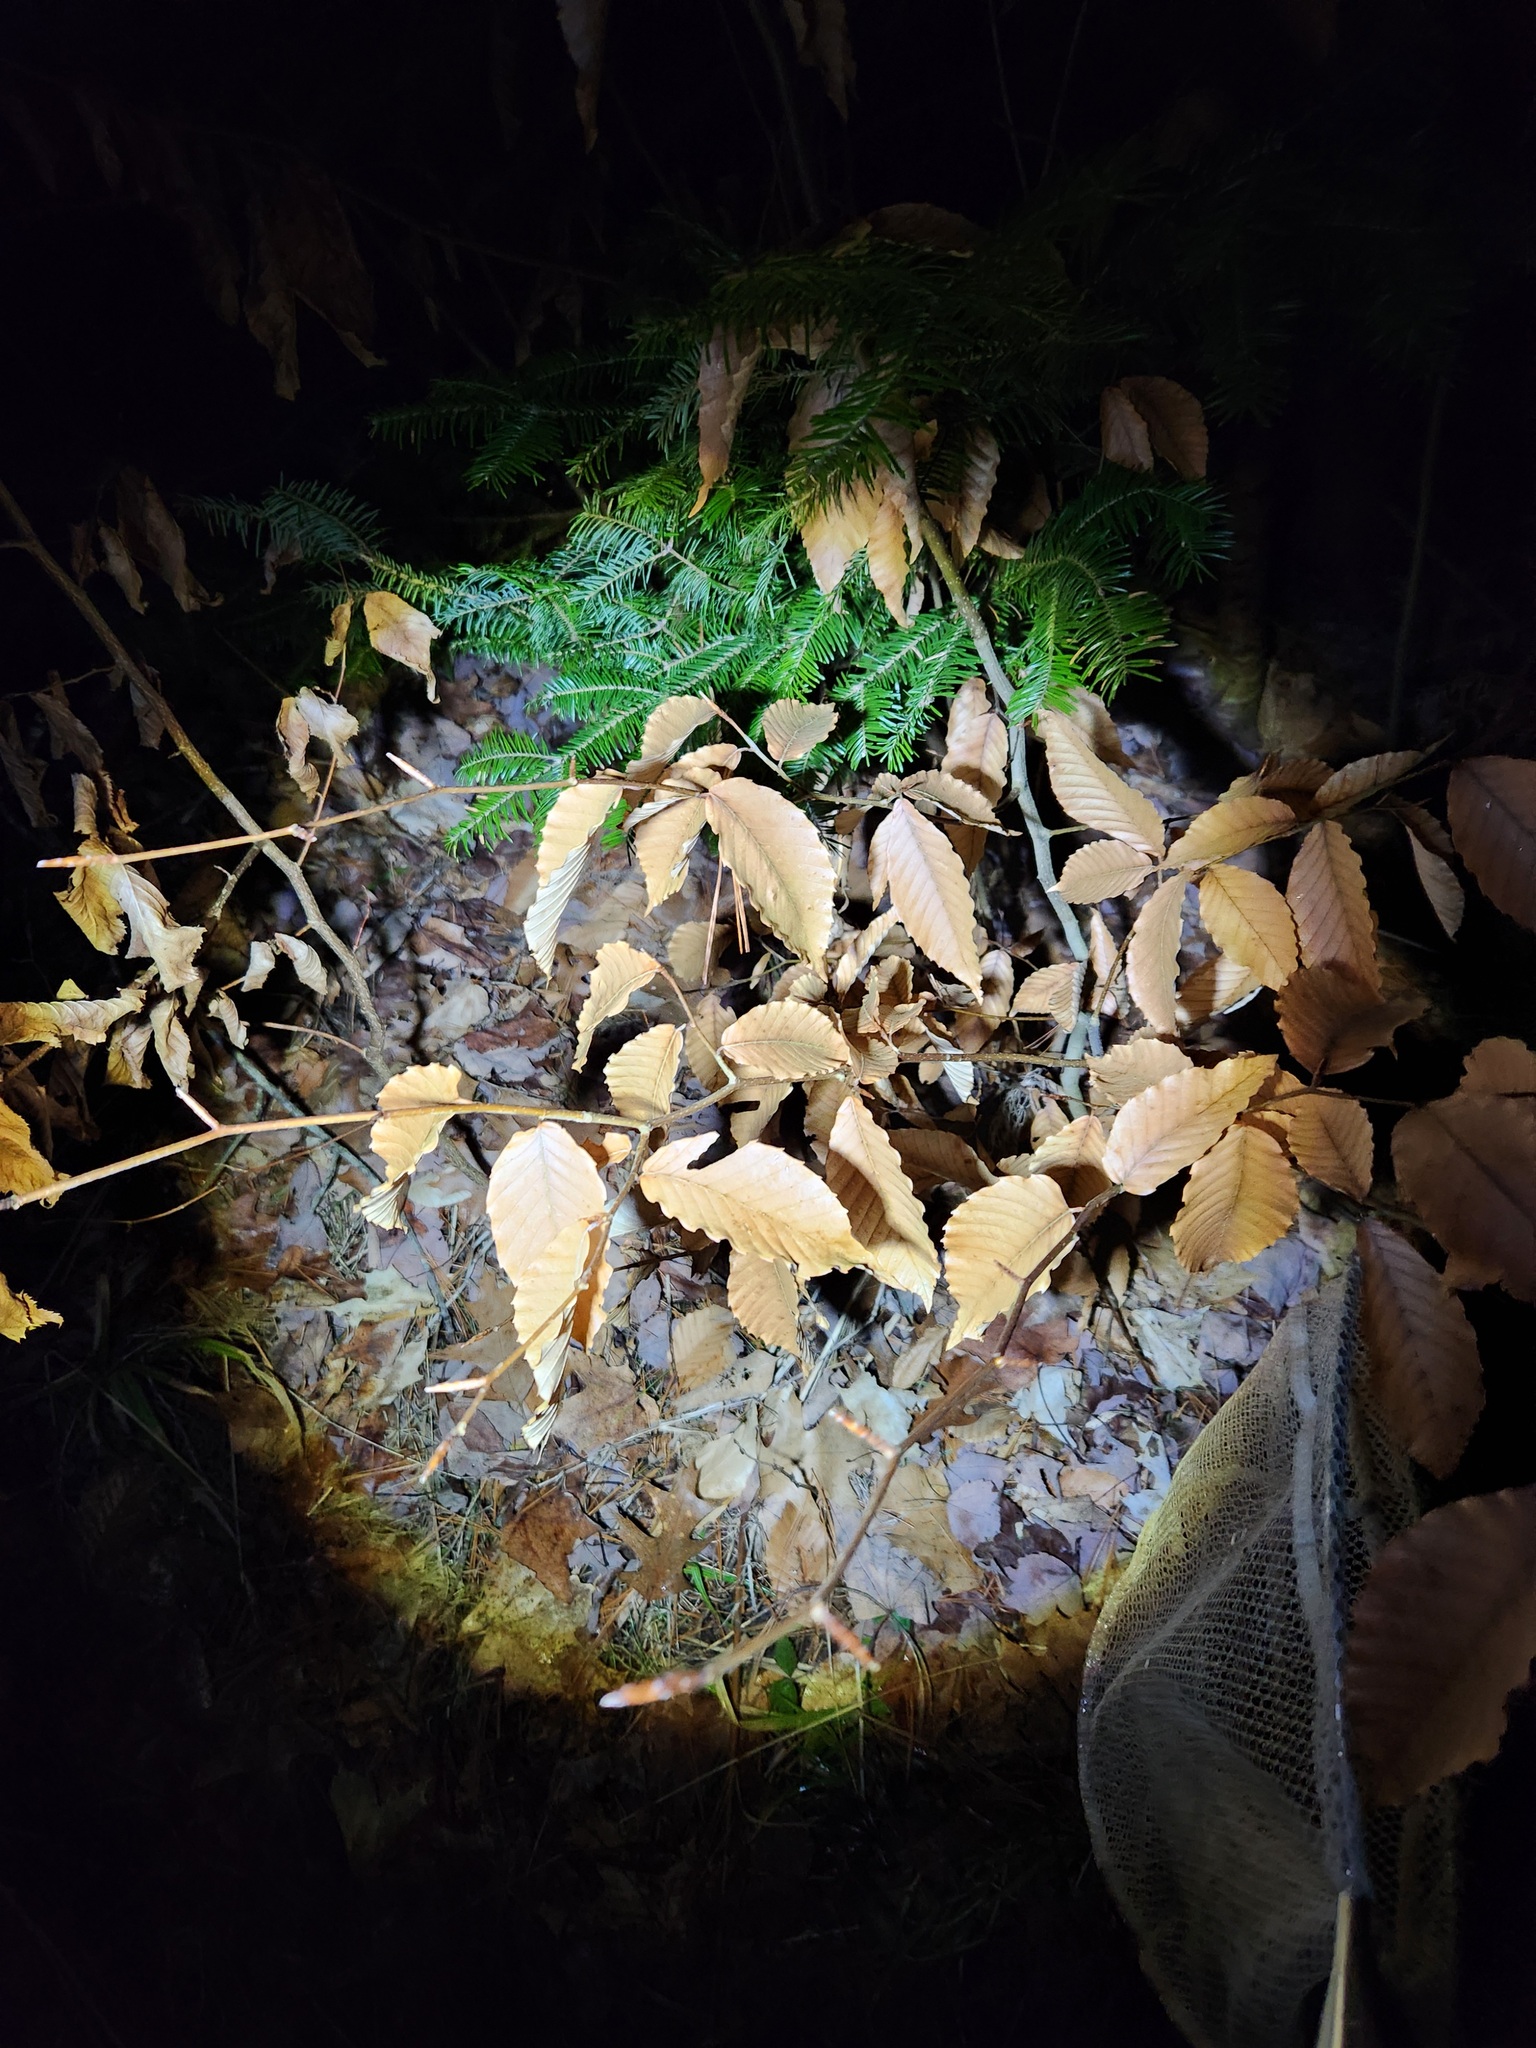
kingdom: Plantae
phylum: Tracheophyta
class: Magnoliopsida
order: Fagales
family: Fagaceae
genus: Fagus
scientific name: Fagus grandifolia
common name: American beech
